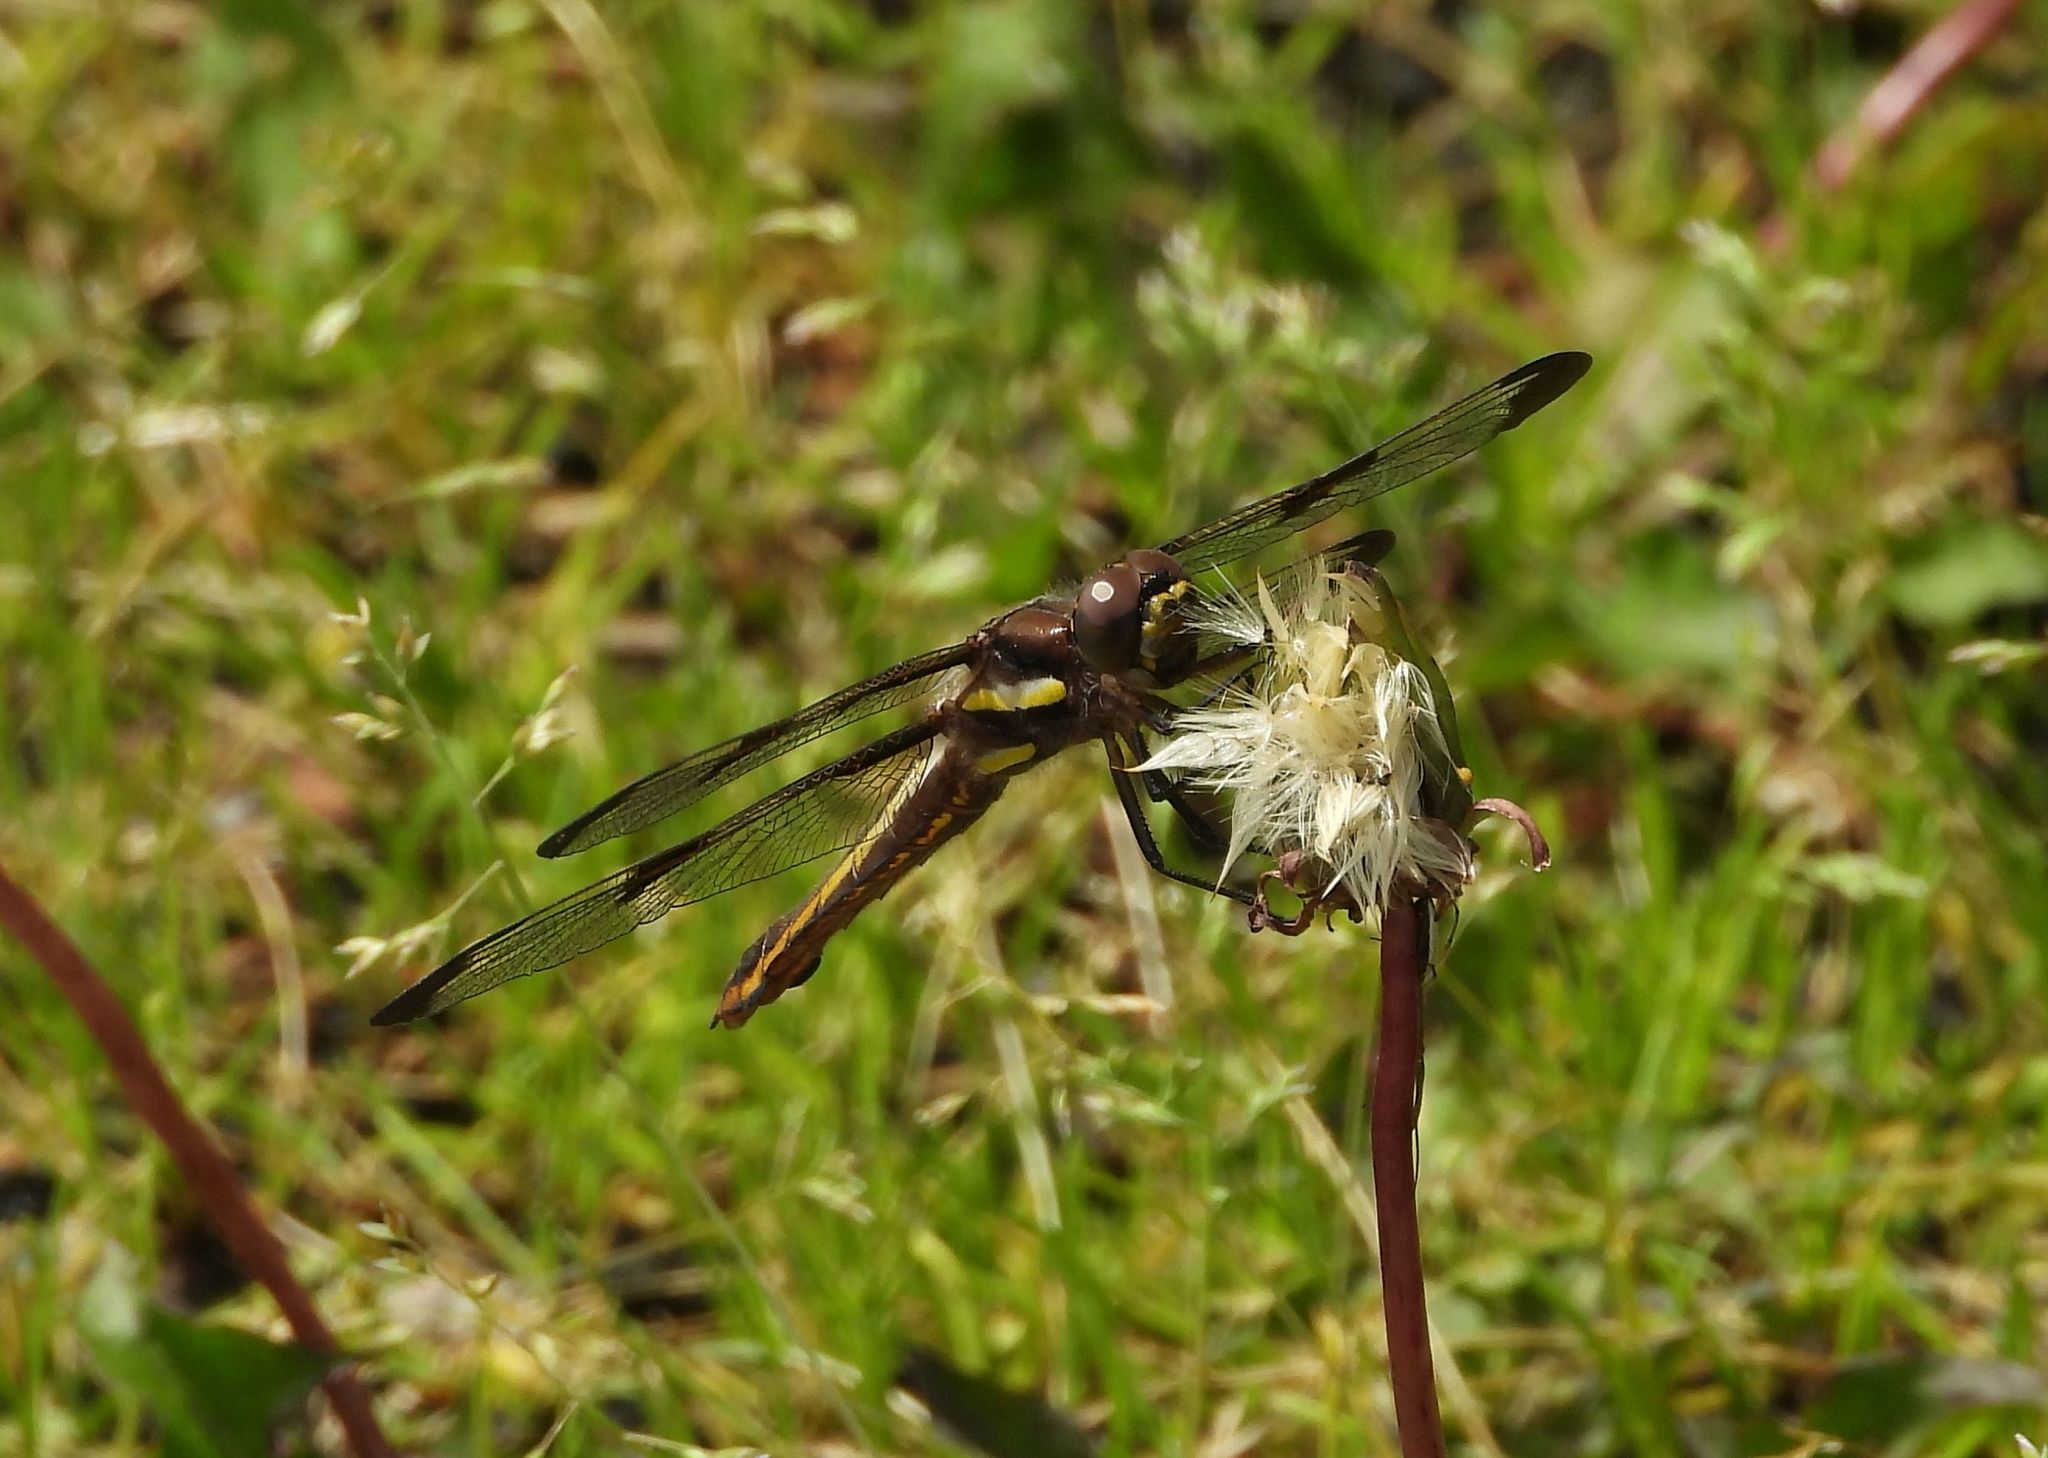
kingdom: Animalia
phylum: Arthropoda
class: Insecta
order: Odonata
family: Libellulidae
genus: Libellula
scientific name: Libellula pulchella
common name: Twelve-spotted skimmer
